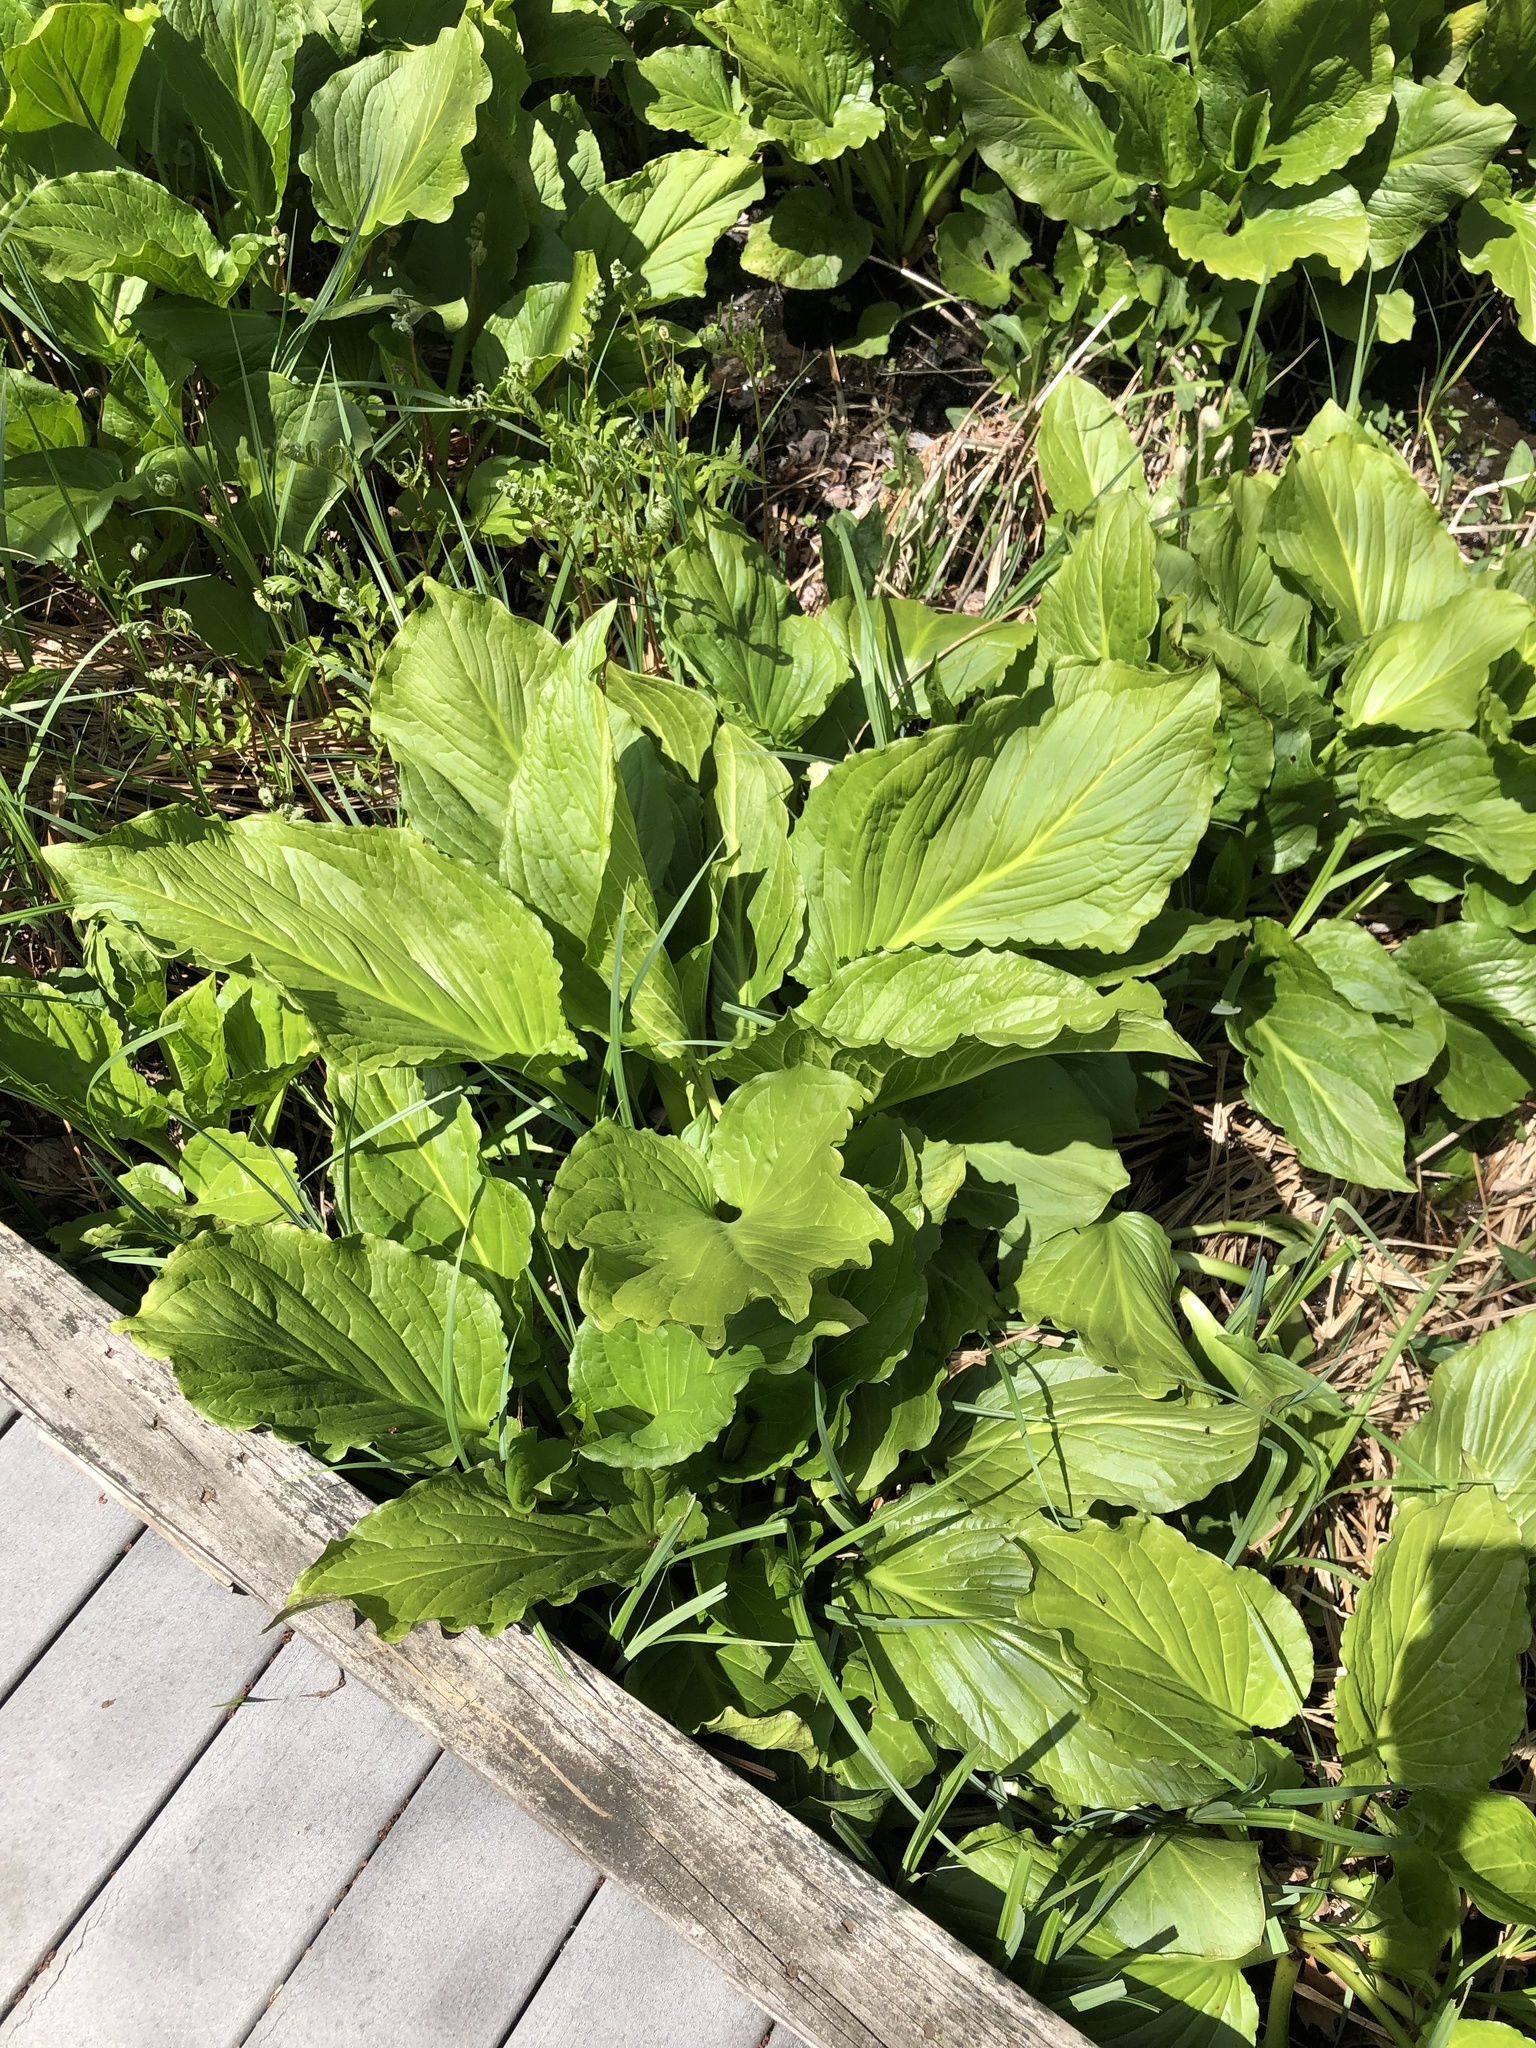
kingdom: Plantae
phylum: Tracheophyta
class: Liliopsida
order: Alismatales
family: Araceae
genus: Symplocarpus
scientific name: Symplocarpus foetidus
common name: Eastern skunk cabbage
